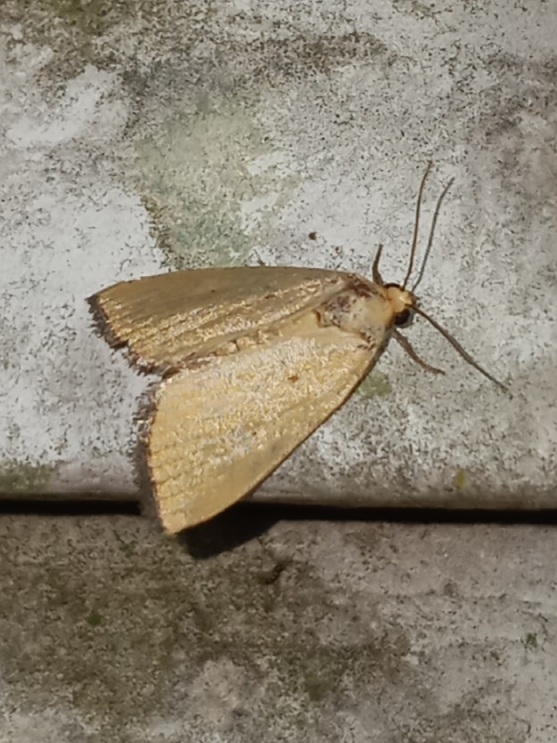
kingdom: Animalia
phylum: Arthropoda
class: Insecta
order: Lepidoptera
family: Noctuidae
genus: Marimatha
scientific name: Marimatha nigrofimbria
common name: Black-bordered lemon moth
